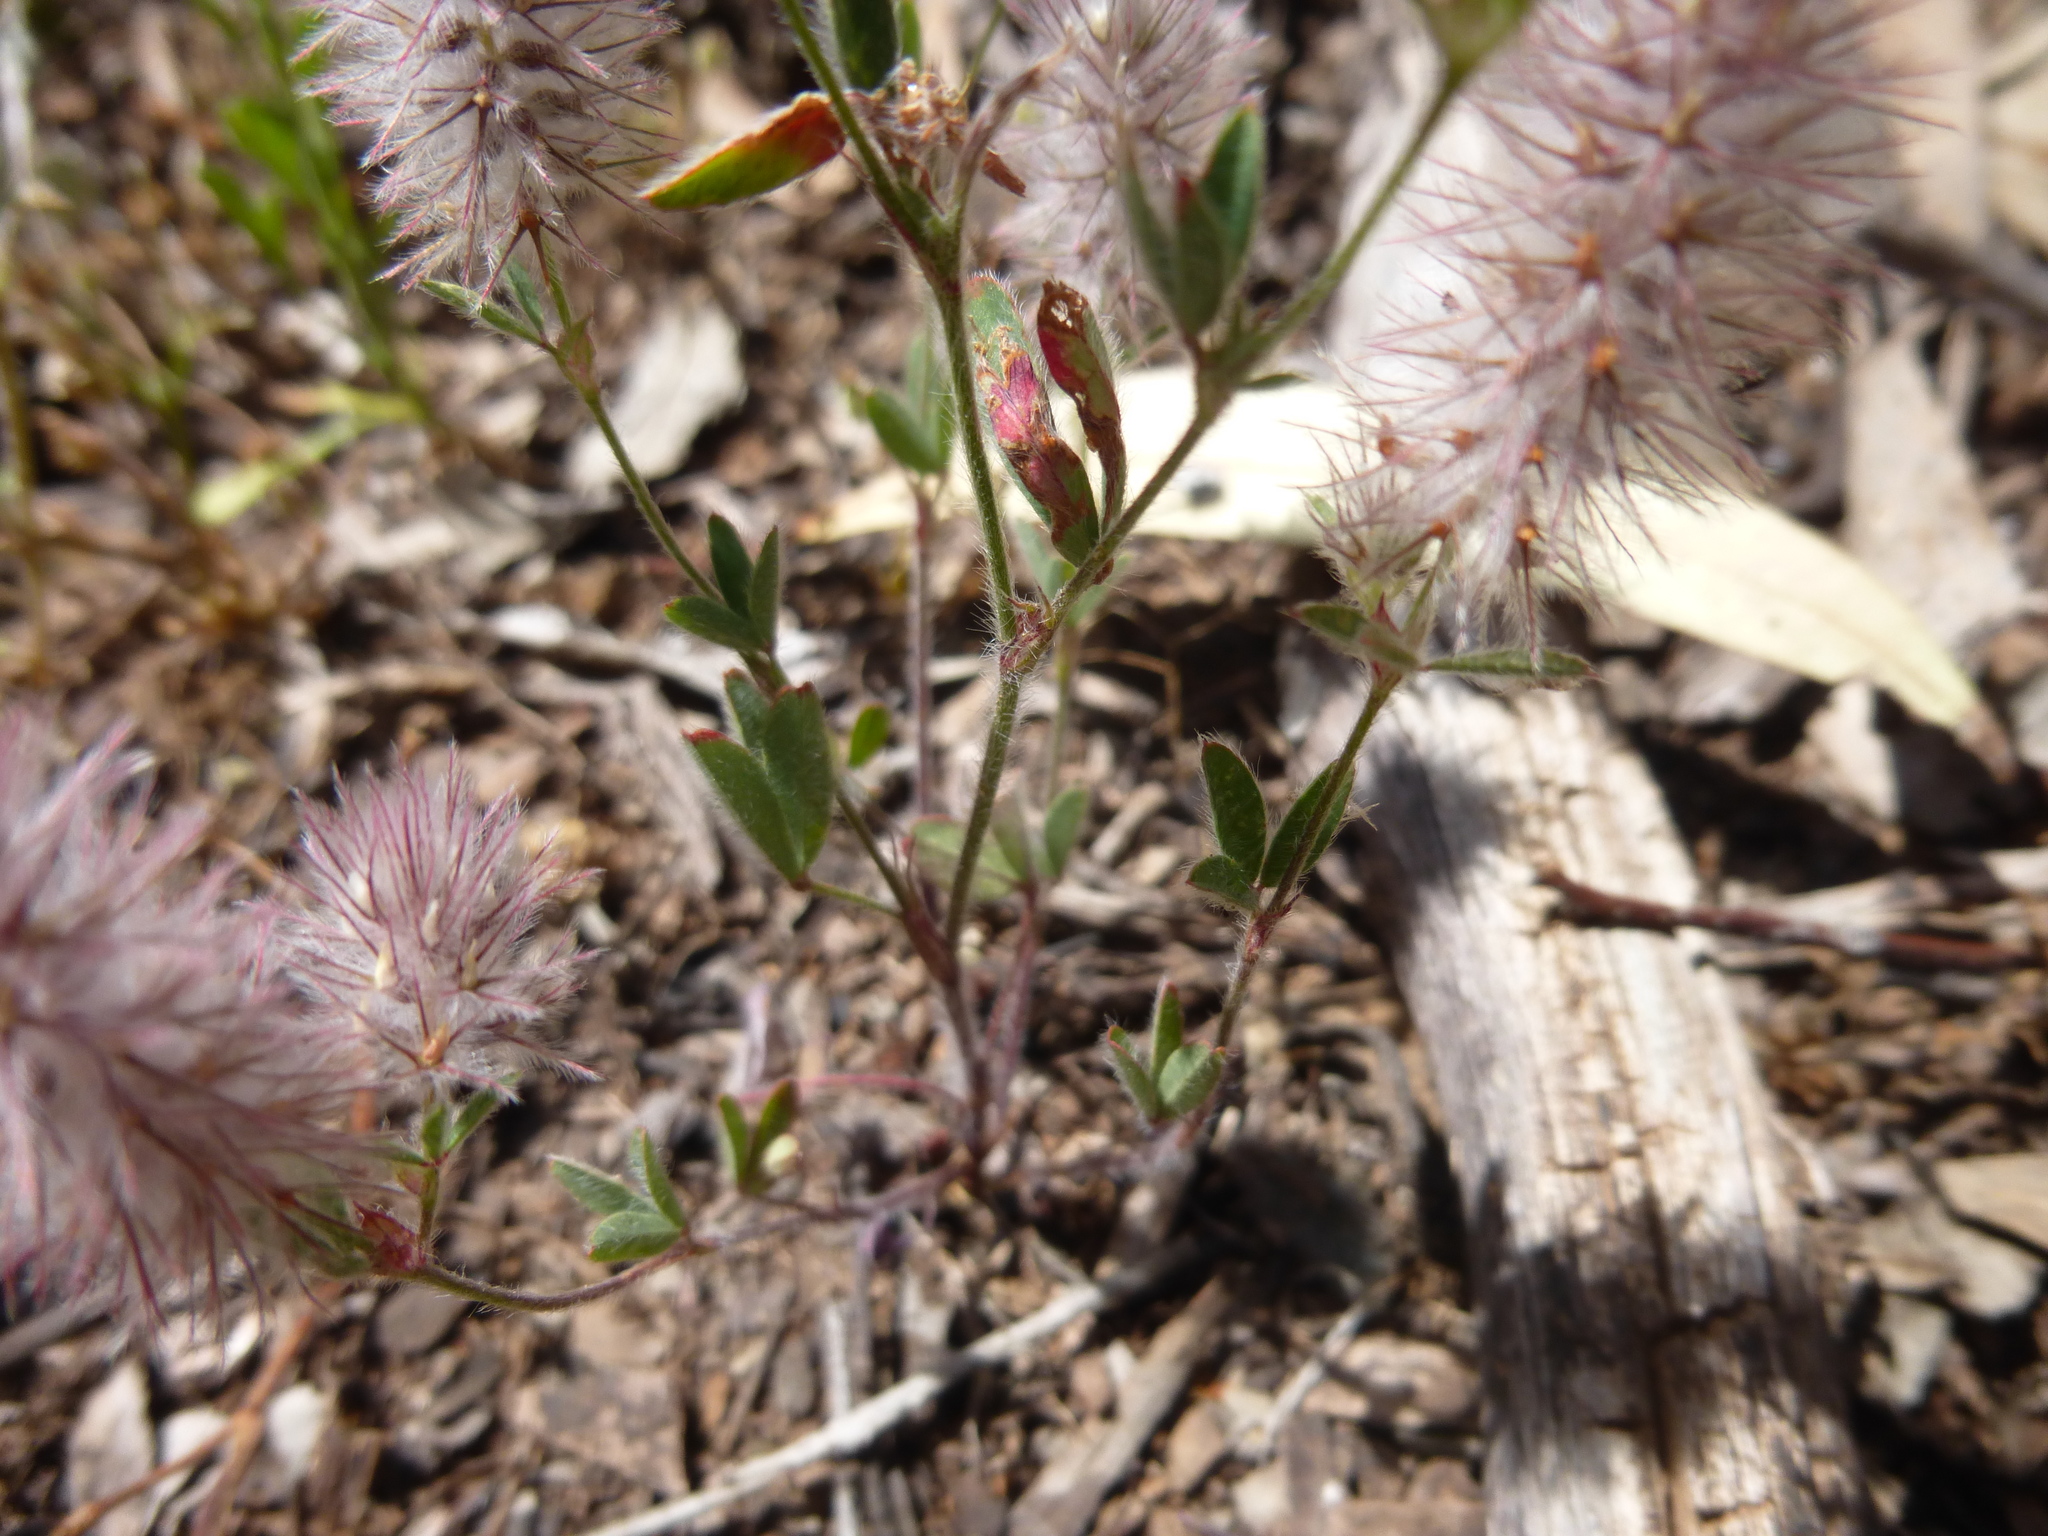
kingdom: Plantae
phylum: Tracheophyta
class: Magnoliopsida
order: Fabales
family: Fabaceae
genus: Trifolium
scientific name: Trifolium arvense
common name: Hare's-foot clover
